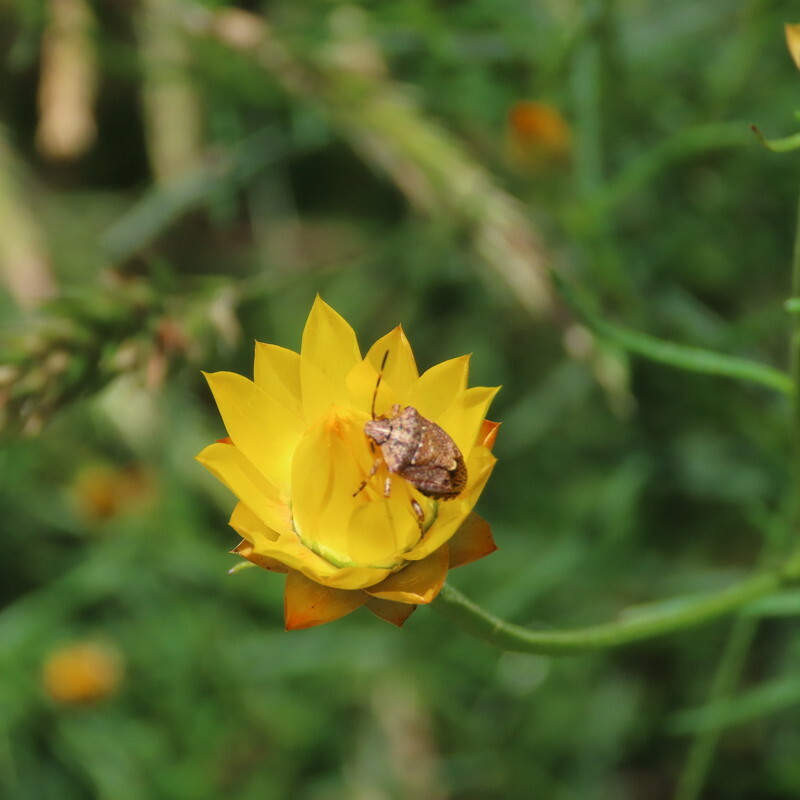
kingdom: Plantae
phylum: Tracheophyta
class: Magnoliopsida
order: Asterales
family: Asteraceae
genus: Xerochrysum
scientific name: Xerochrysum viscosum
